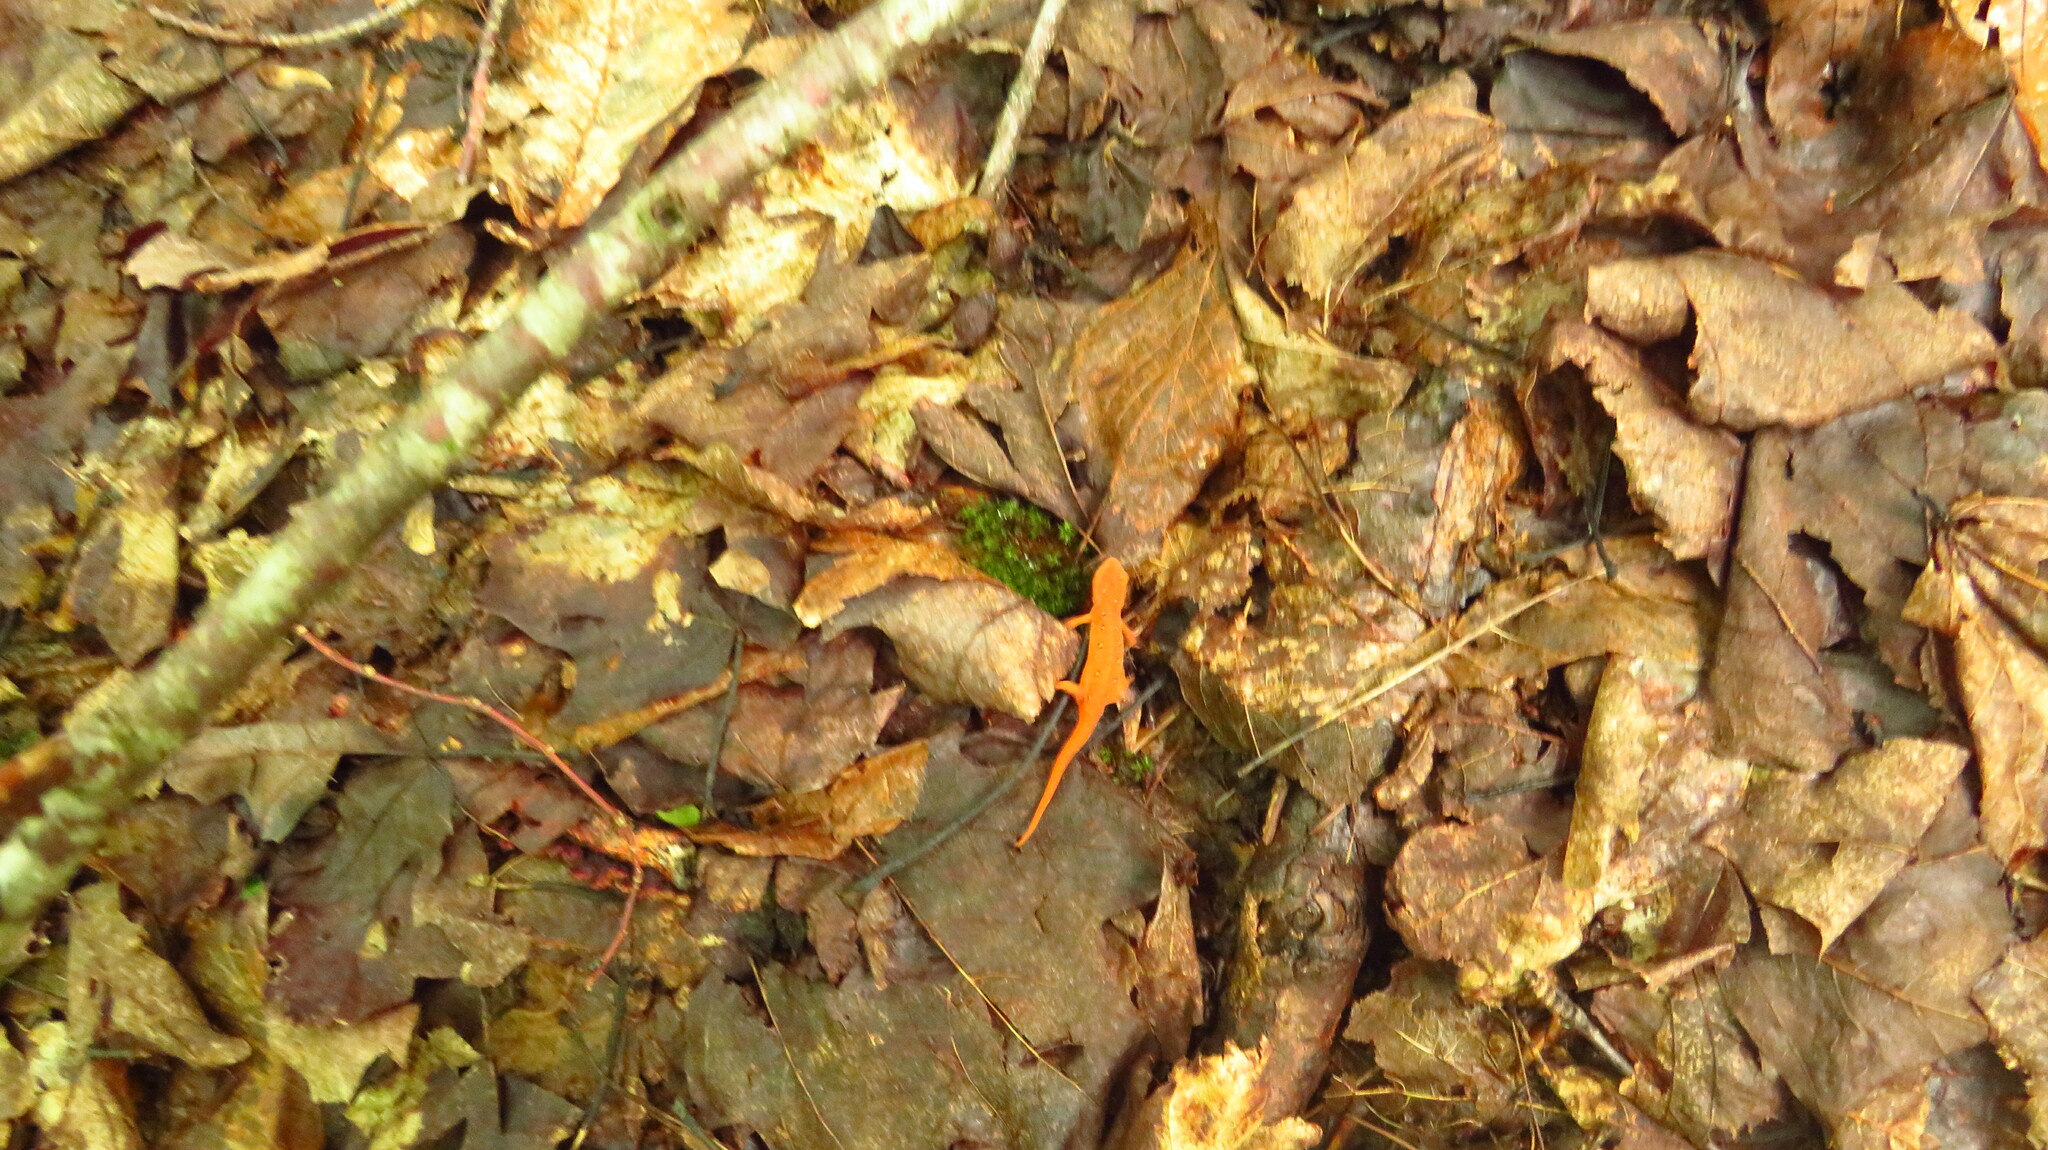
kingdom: Animalia
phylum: Chordata
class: Amphibia
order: Caudata
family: Salamandridae
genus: Notophthalmus
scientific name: Notophthalmus viridescens
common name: Eastern newt
